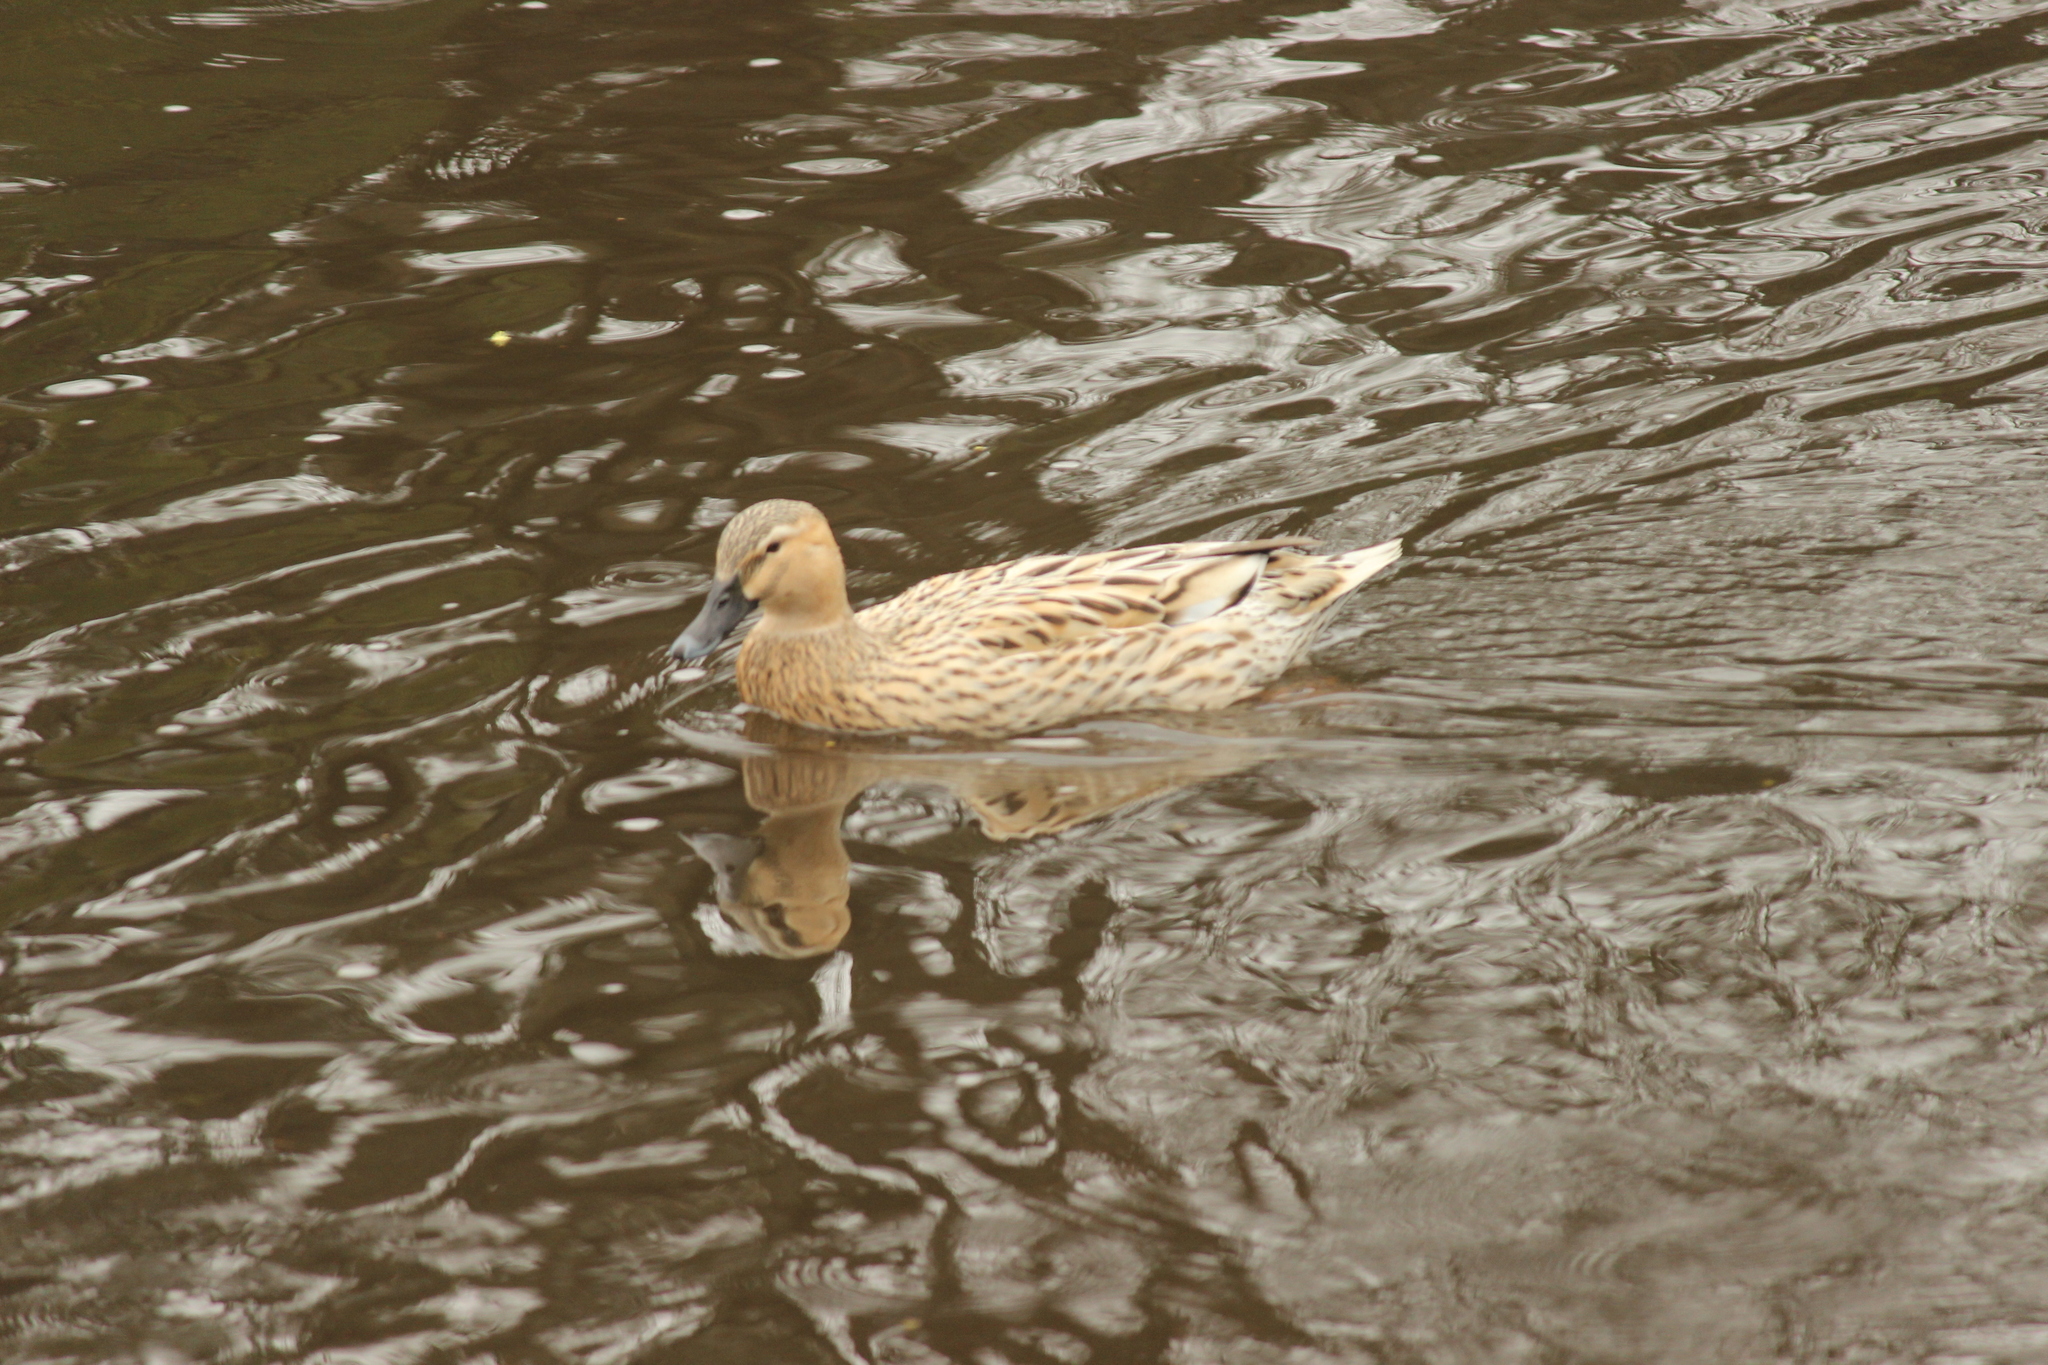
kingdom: Animalia
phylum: Chordata
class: Aves
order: Anseriformes
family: Anatidae
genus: Anas
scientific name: Anas platyrhynchos
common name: Mallard
